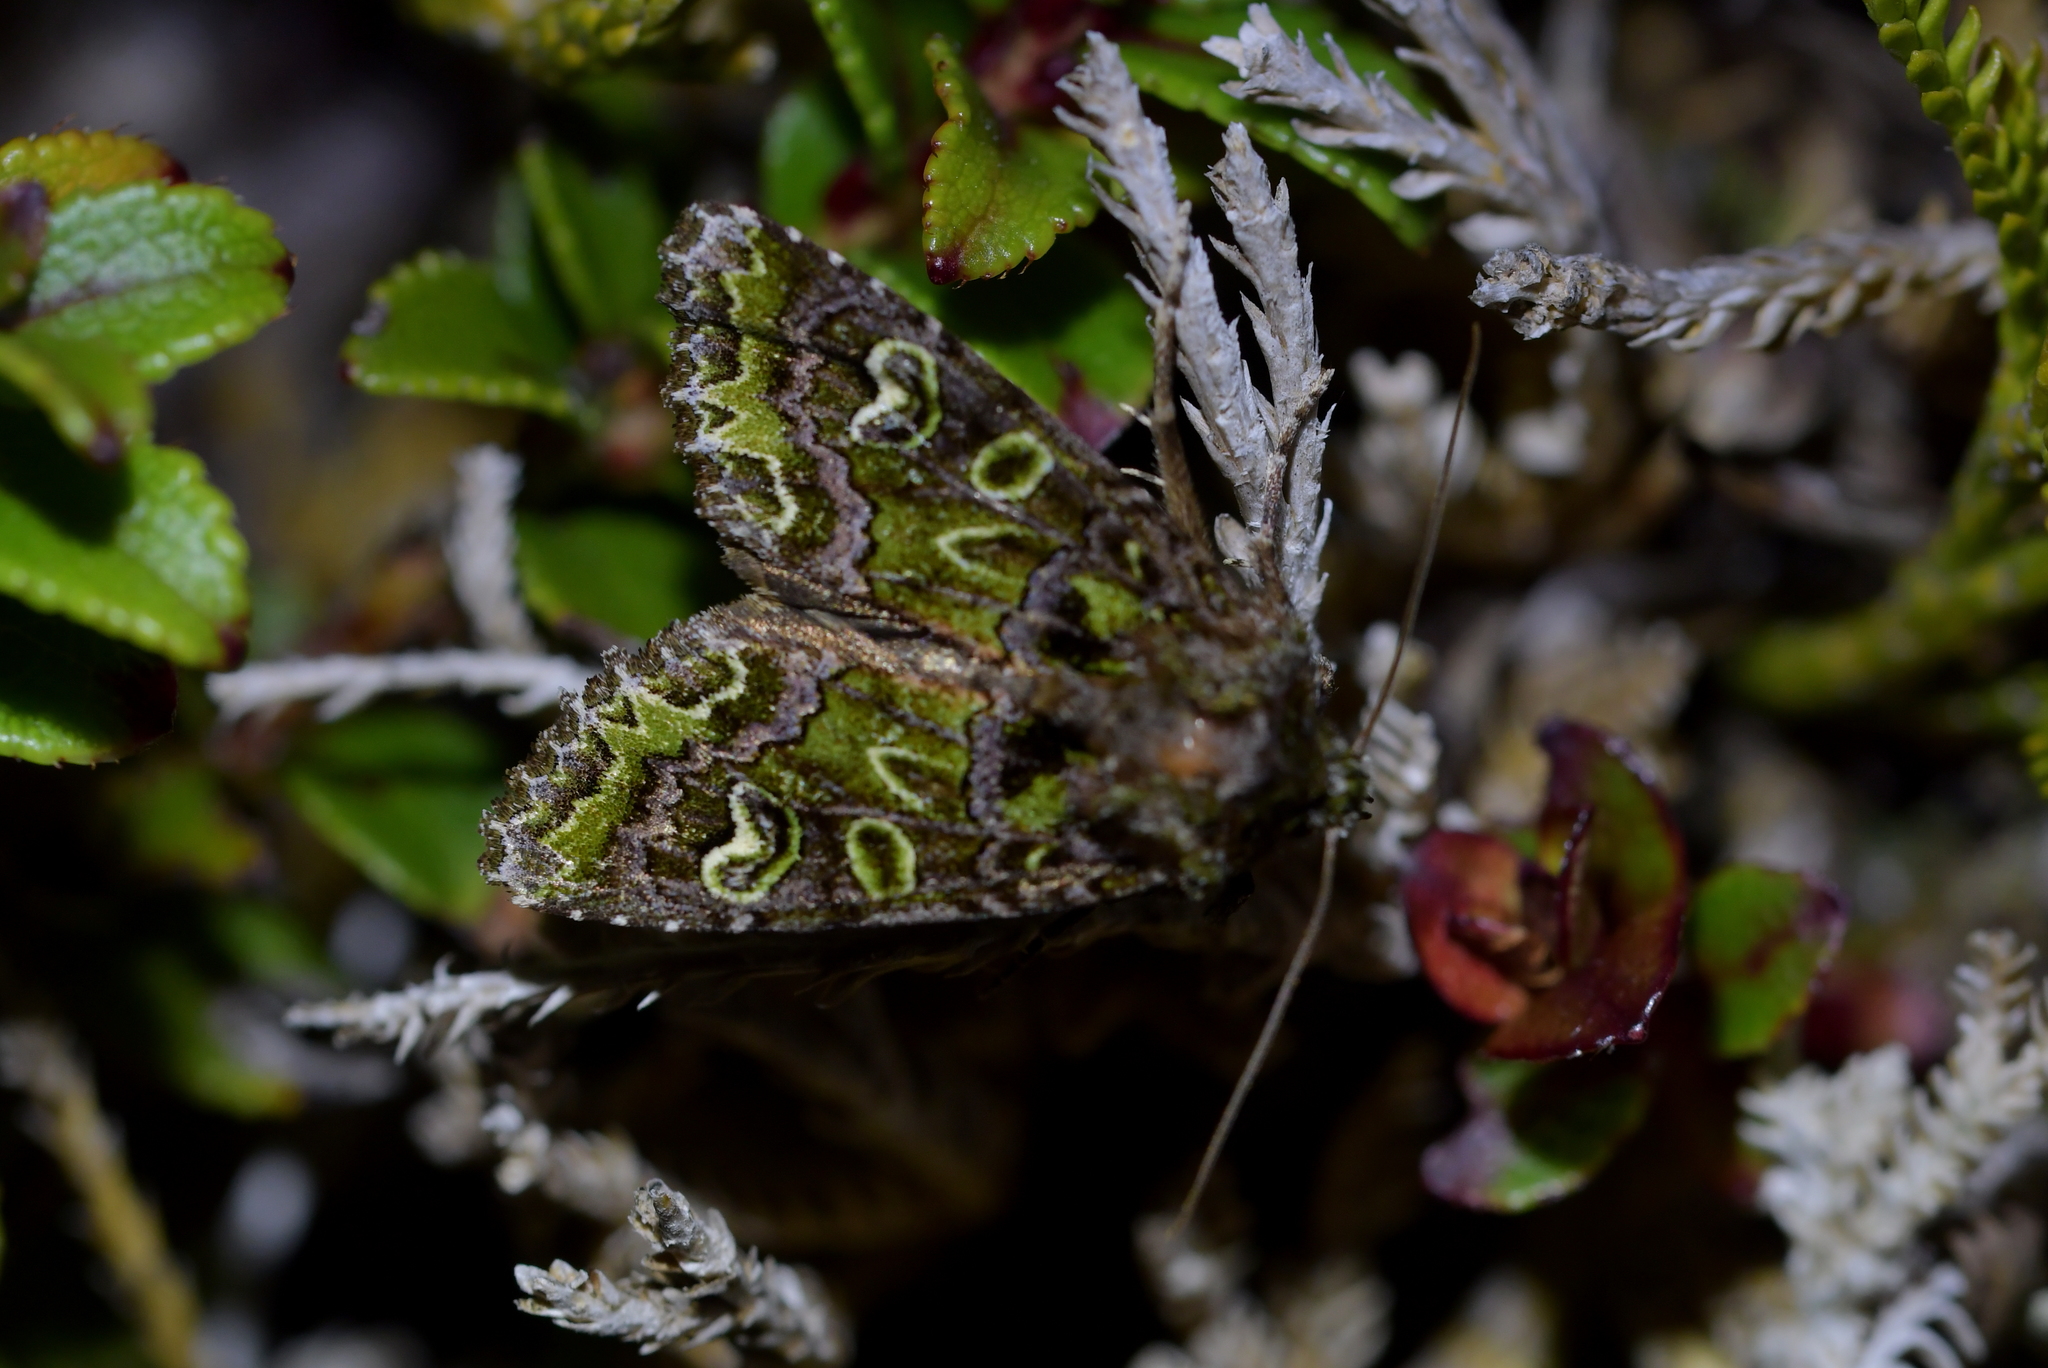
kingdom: Animalia
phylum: Arthropoda
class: Insecta
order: Lepidoptera
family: Noctuidae
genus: Ichneutica
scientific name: Ichneutica chlorodonta
